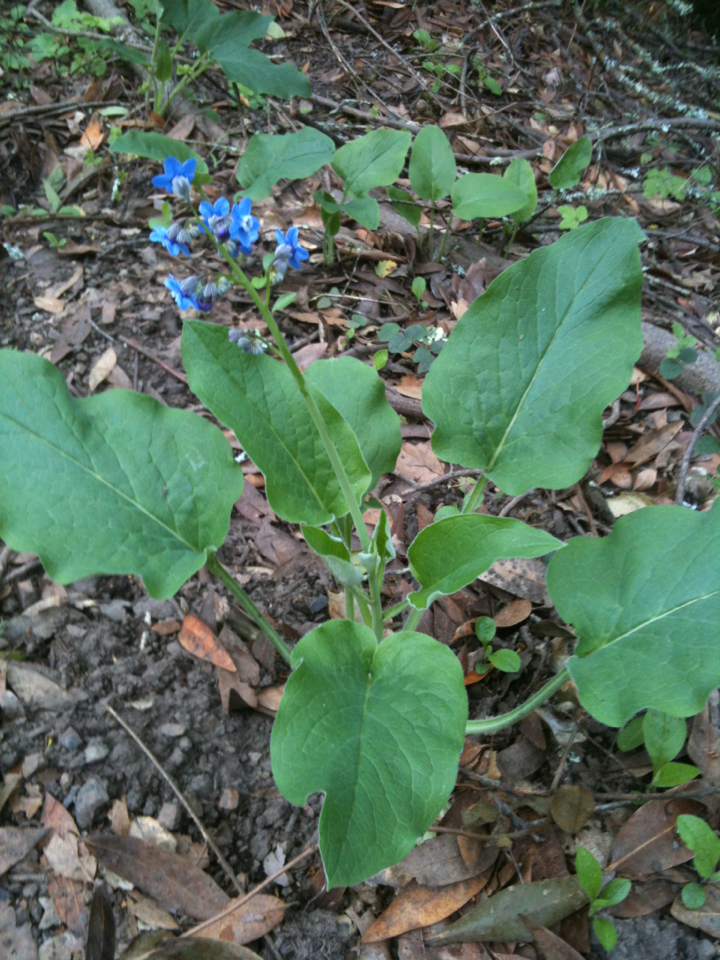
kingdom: Plantae
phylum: Tracheophyta
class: Magnoliopsida
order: Boraginales
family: Boraginaceae
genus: Adelinia
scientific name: Adelinia grande
